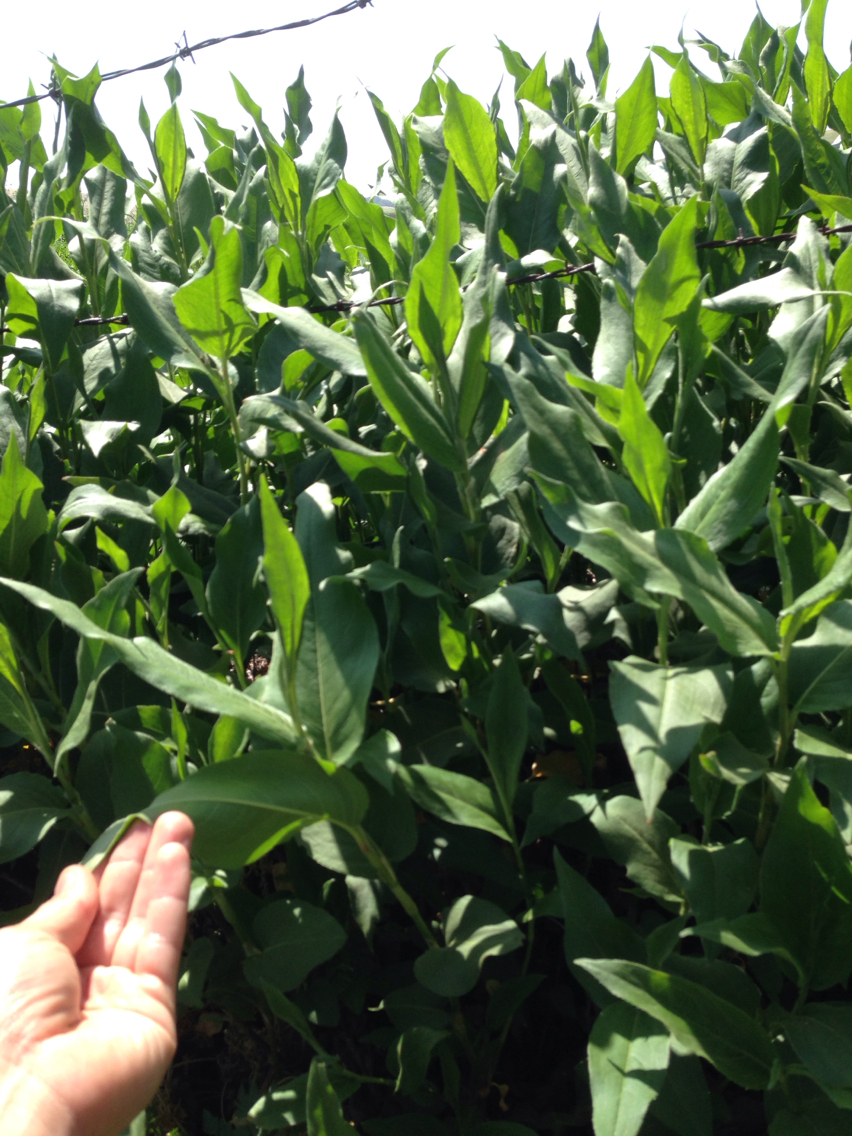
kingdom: Plantae
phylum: Tracheophyta
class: Magnoliopsida
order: Caryophyllales
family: Polygonaceae
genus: Persicaria
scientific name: Persicaria amphibia
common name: Amphibious bistort
